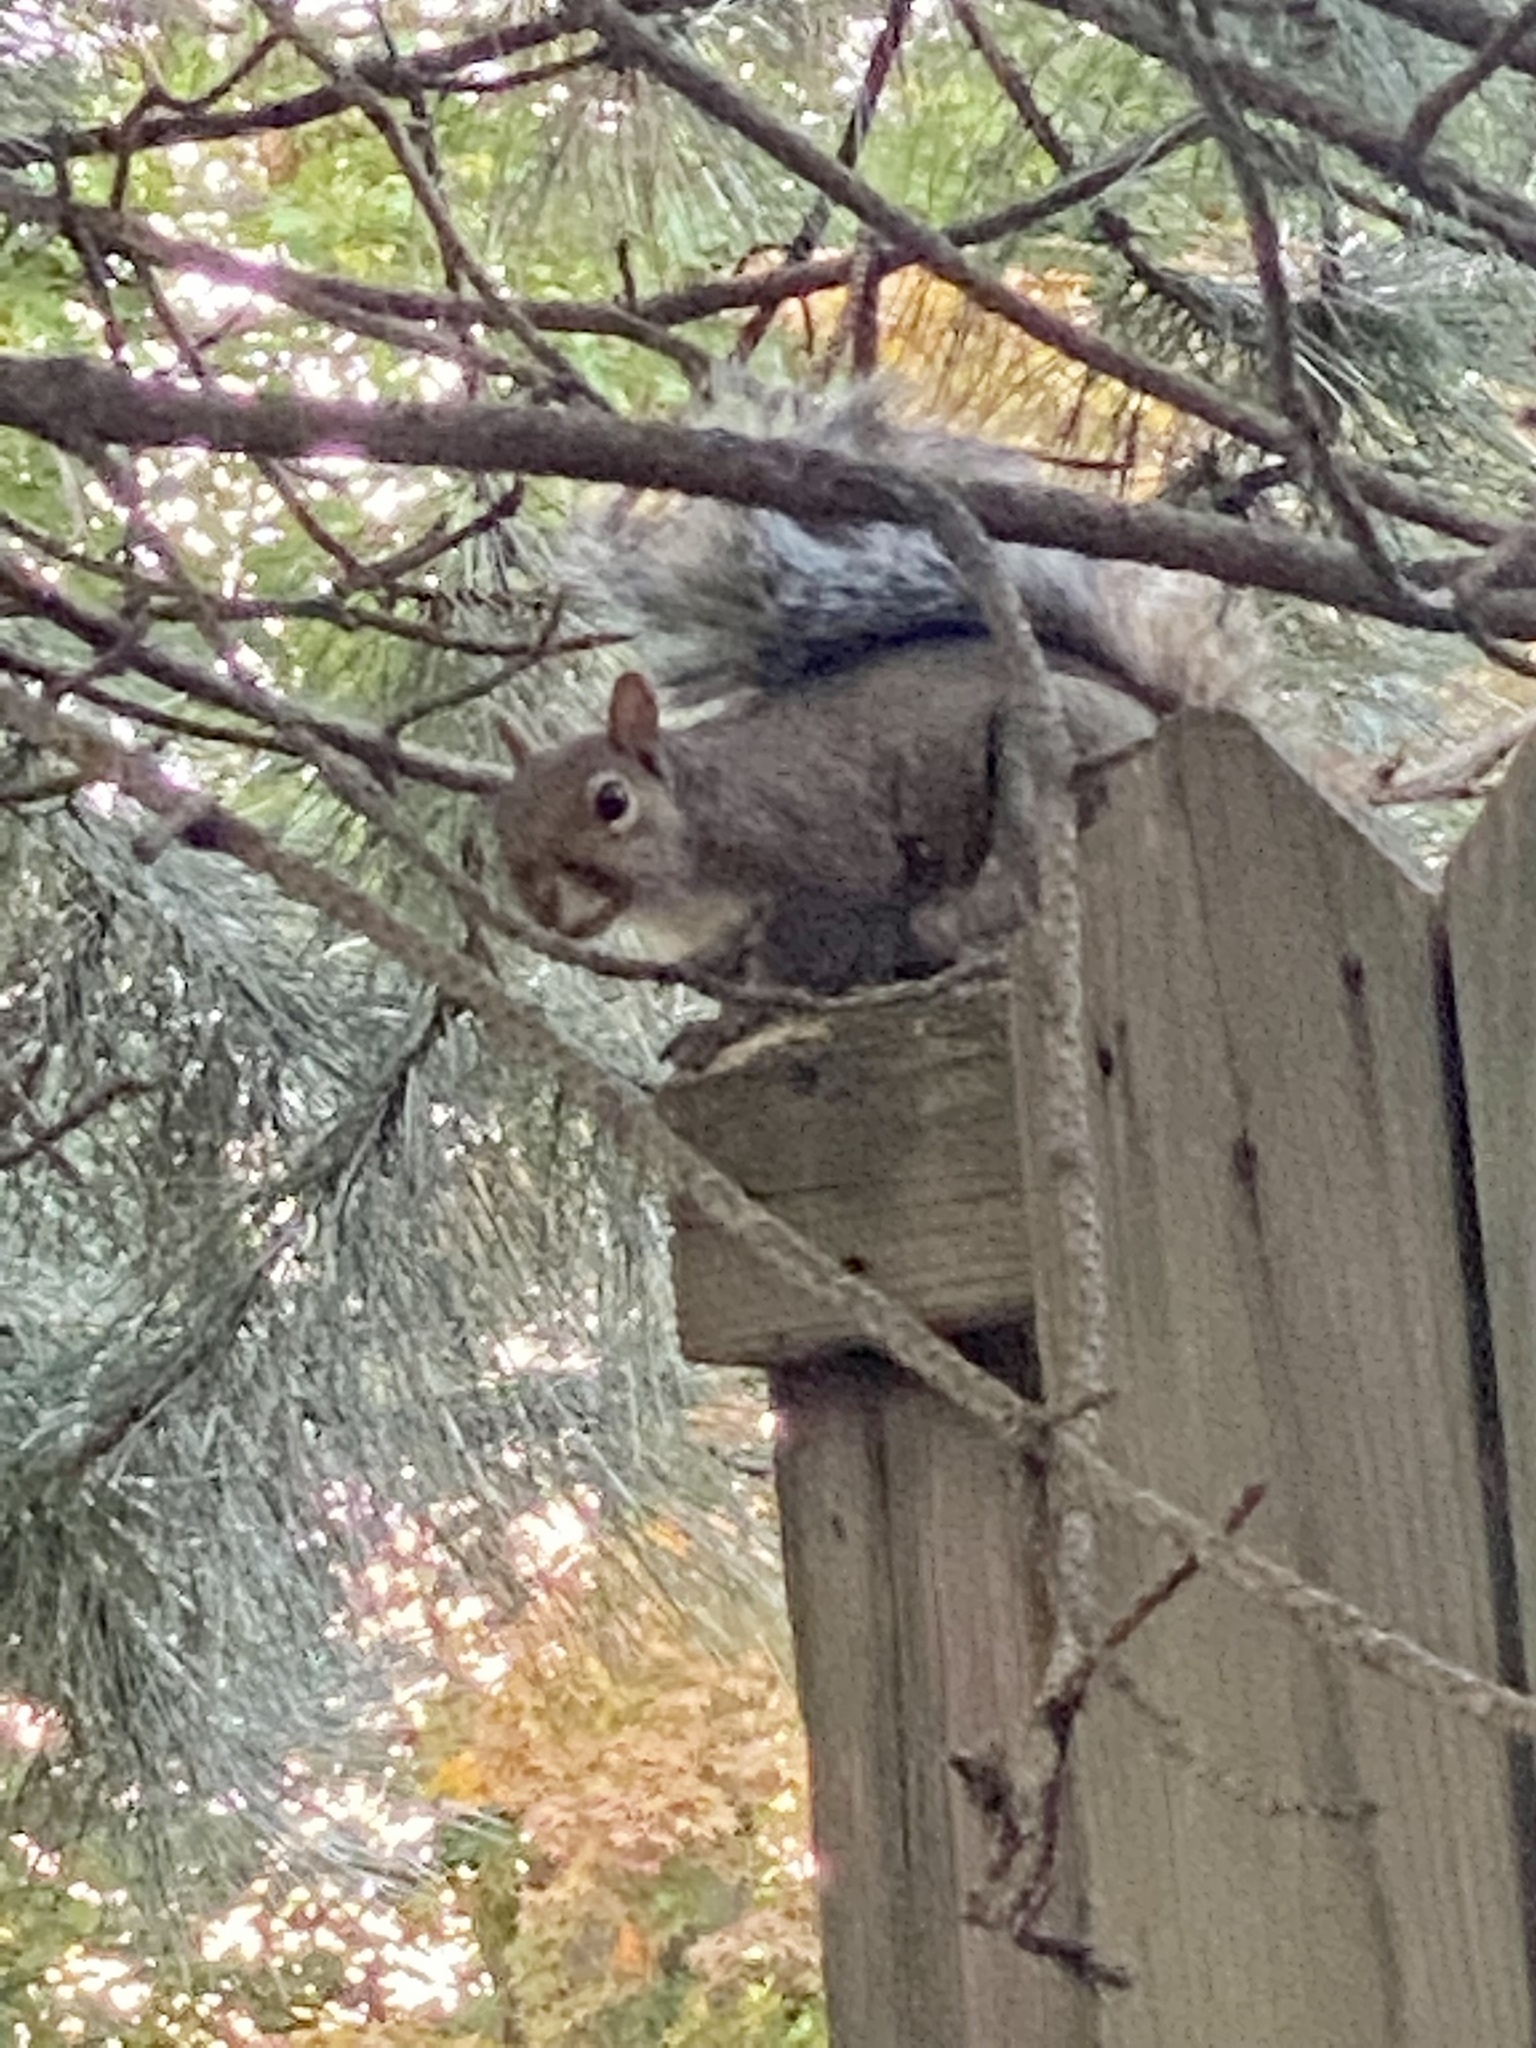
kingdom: Animalia
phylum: Chordata
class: Mammalia
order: Rodentia
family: Sciuridae
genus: Sciurus
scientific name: Sciurus carolinensis
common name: Eastern gray squirrel
